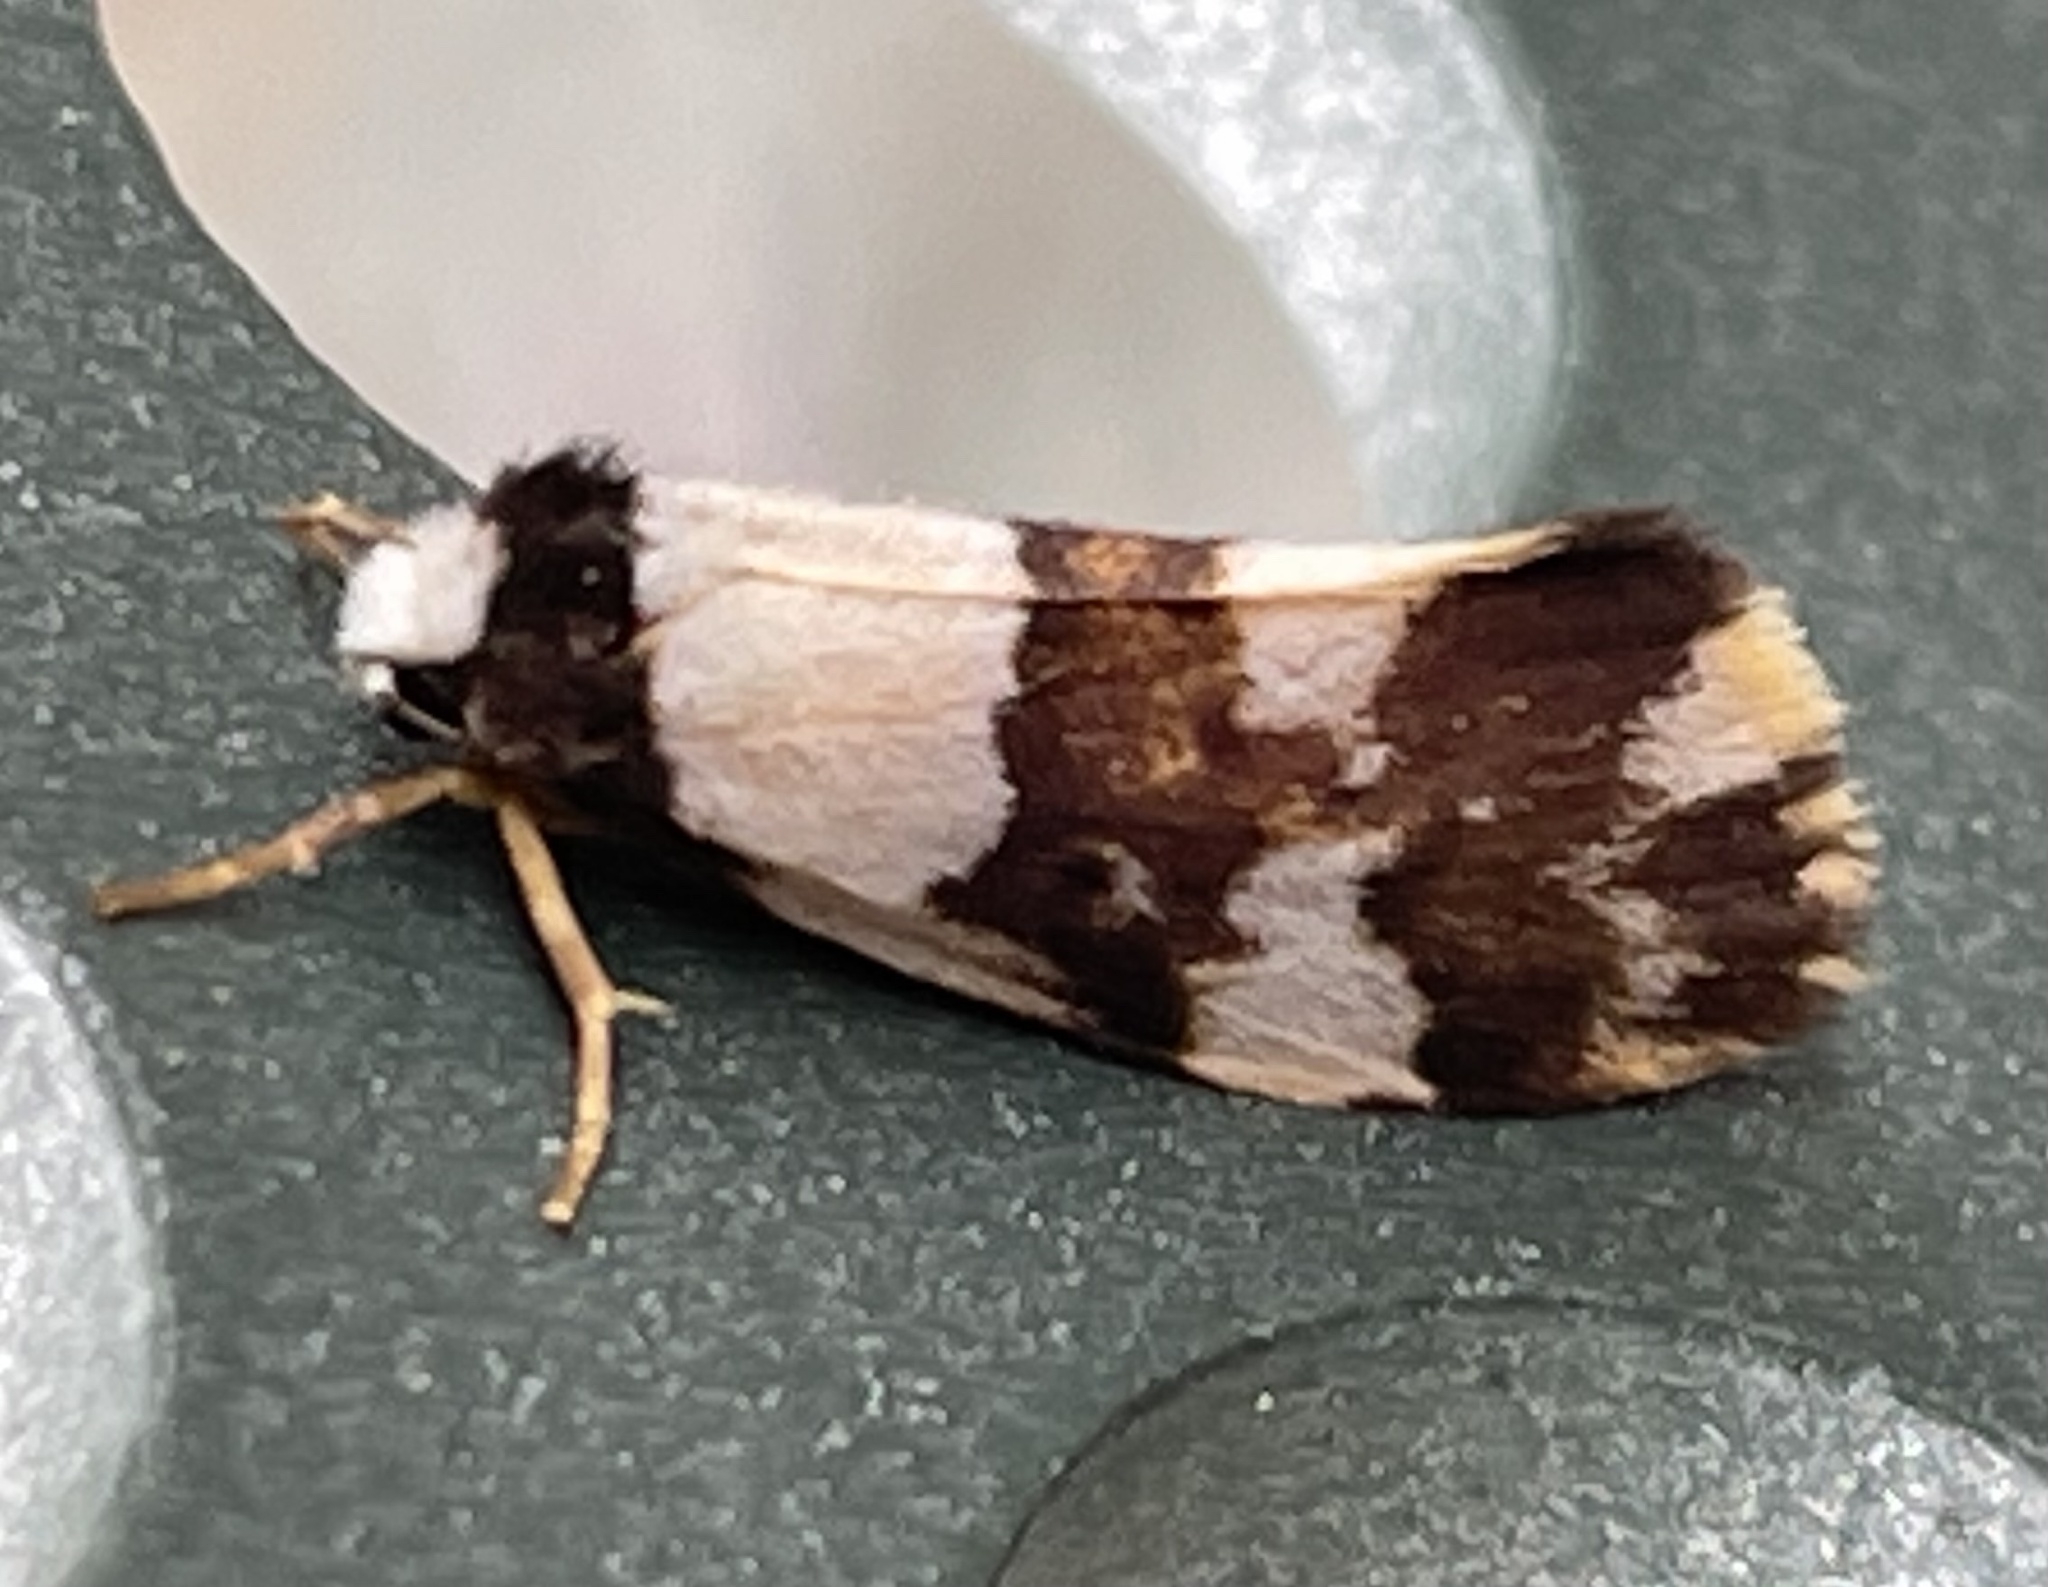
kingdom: Animalia
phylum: Arthropoda
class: Insecta
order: Lepidoptera
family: Erebidae
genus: Philenora
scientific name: Philenora aspectalella
